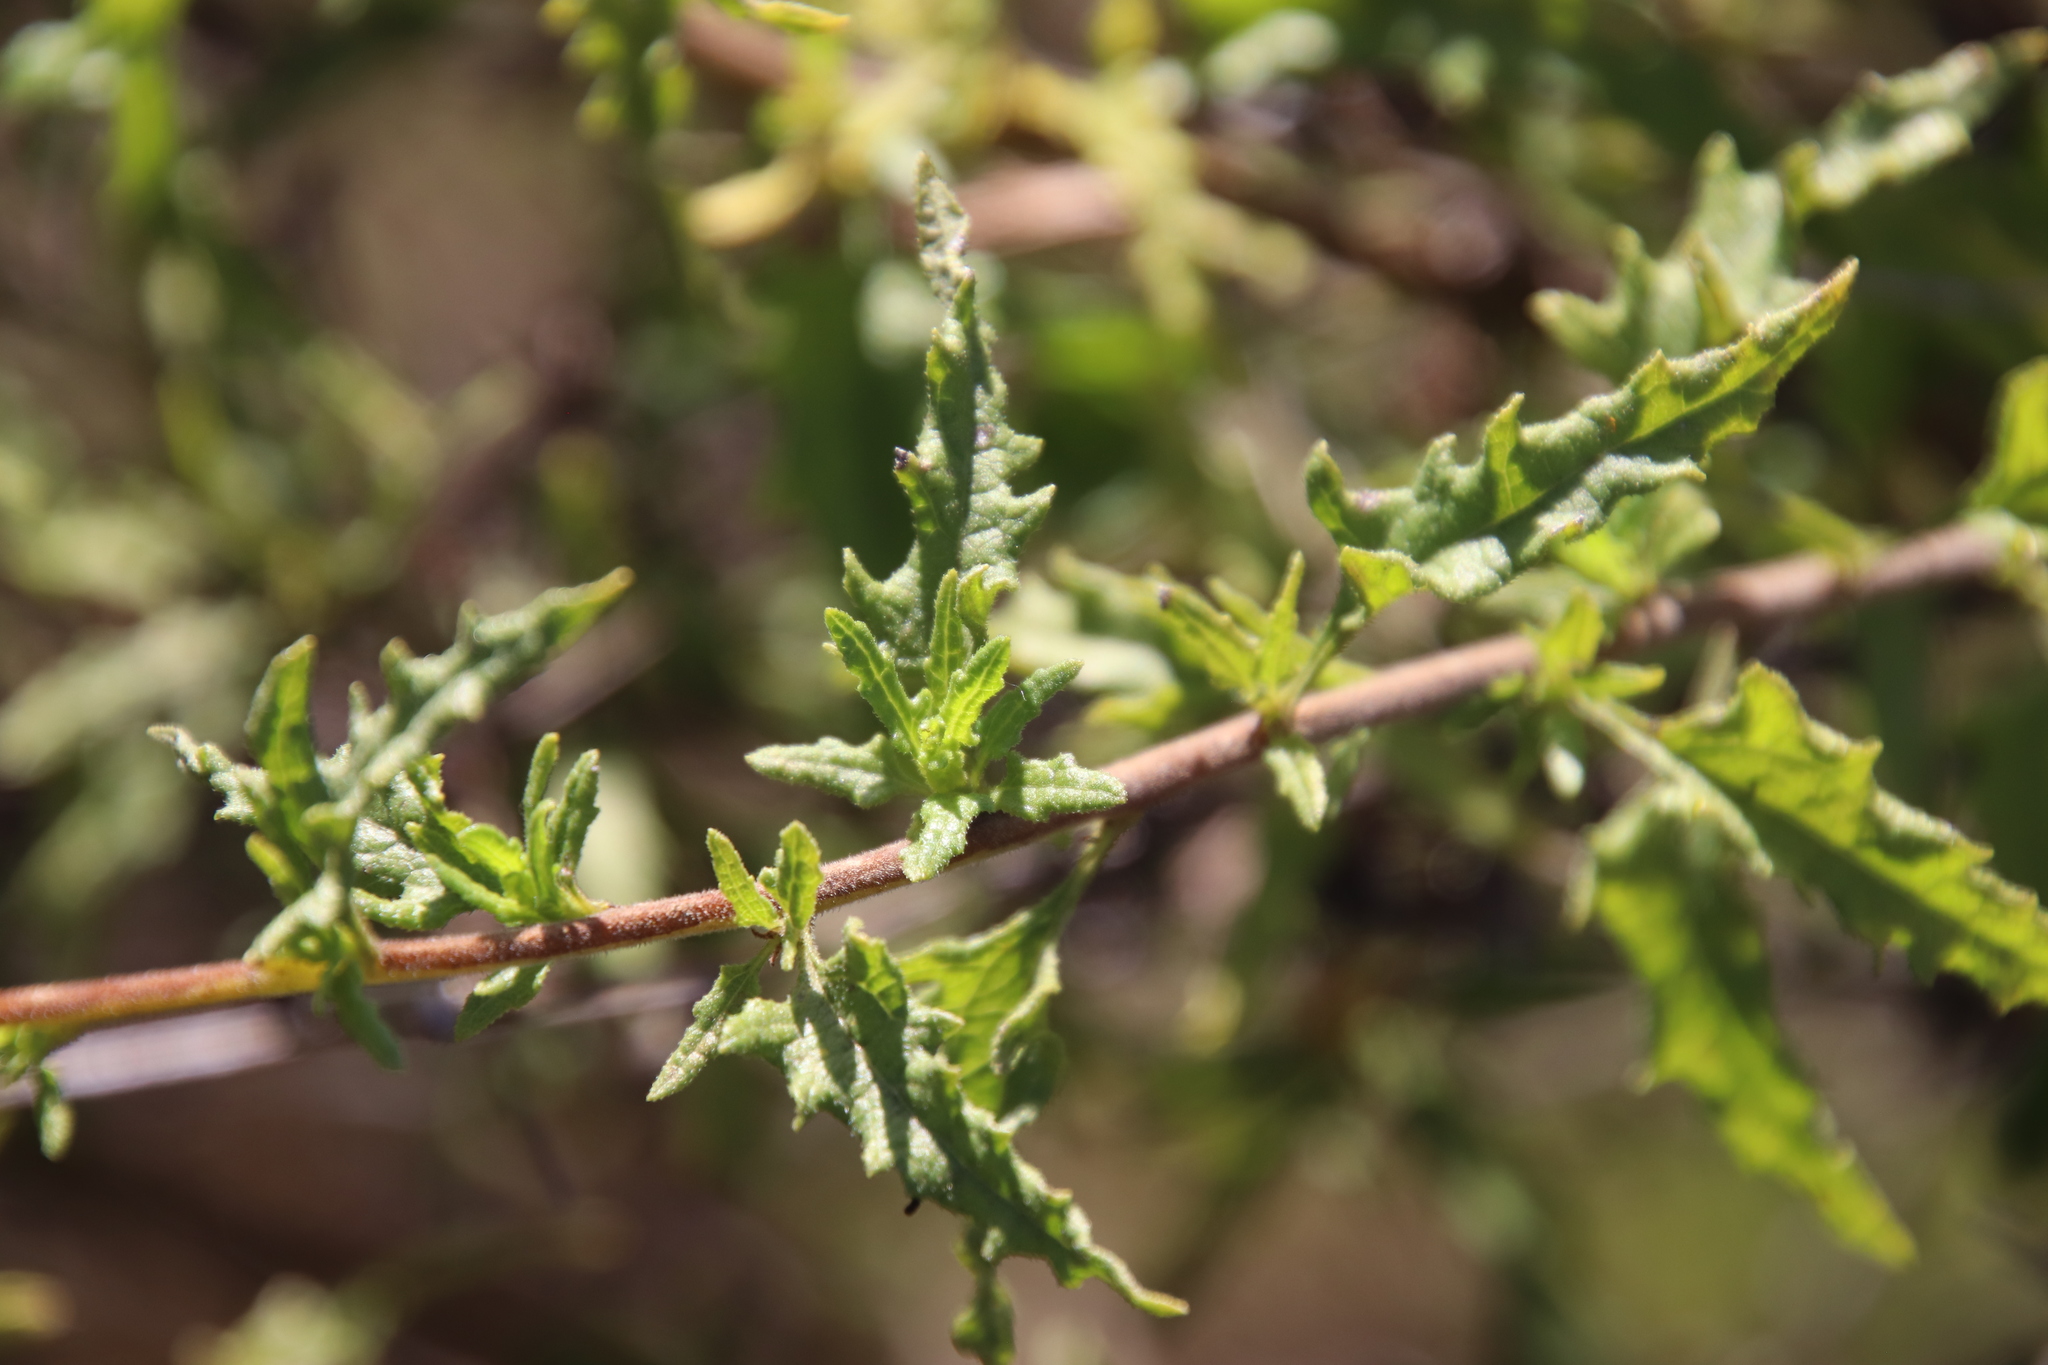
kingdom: Plantae
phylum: Tracheophyta
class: Magnoliopsida
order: Asterales
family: Asteraceae
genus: Bahiopsis
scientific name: Bahiopsis laciniata
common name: San diego county viguiera
